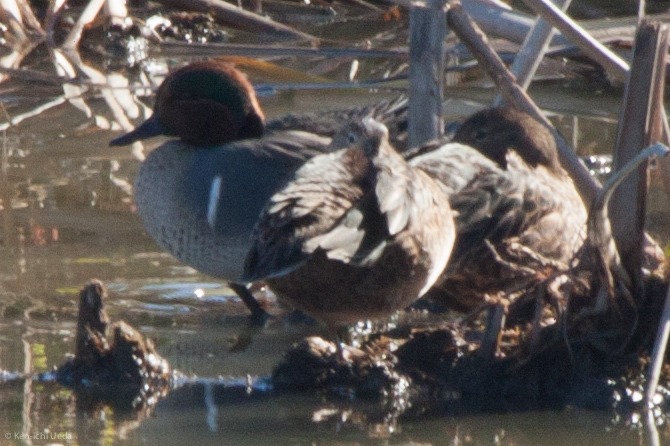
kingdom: Animalia
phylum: Chordata
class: Aves
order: Anseriformes
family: Anatidae
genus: Anas
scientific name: Anas carolinensis
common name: Green-winged teal
